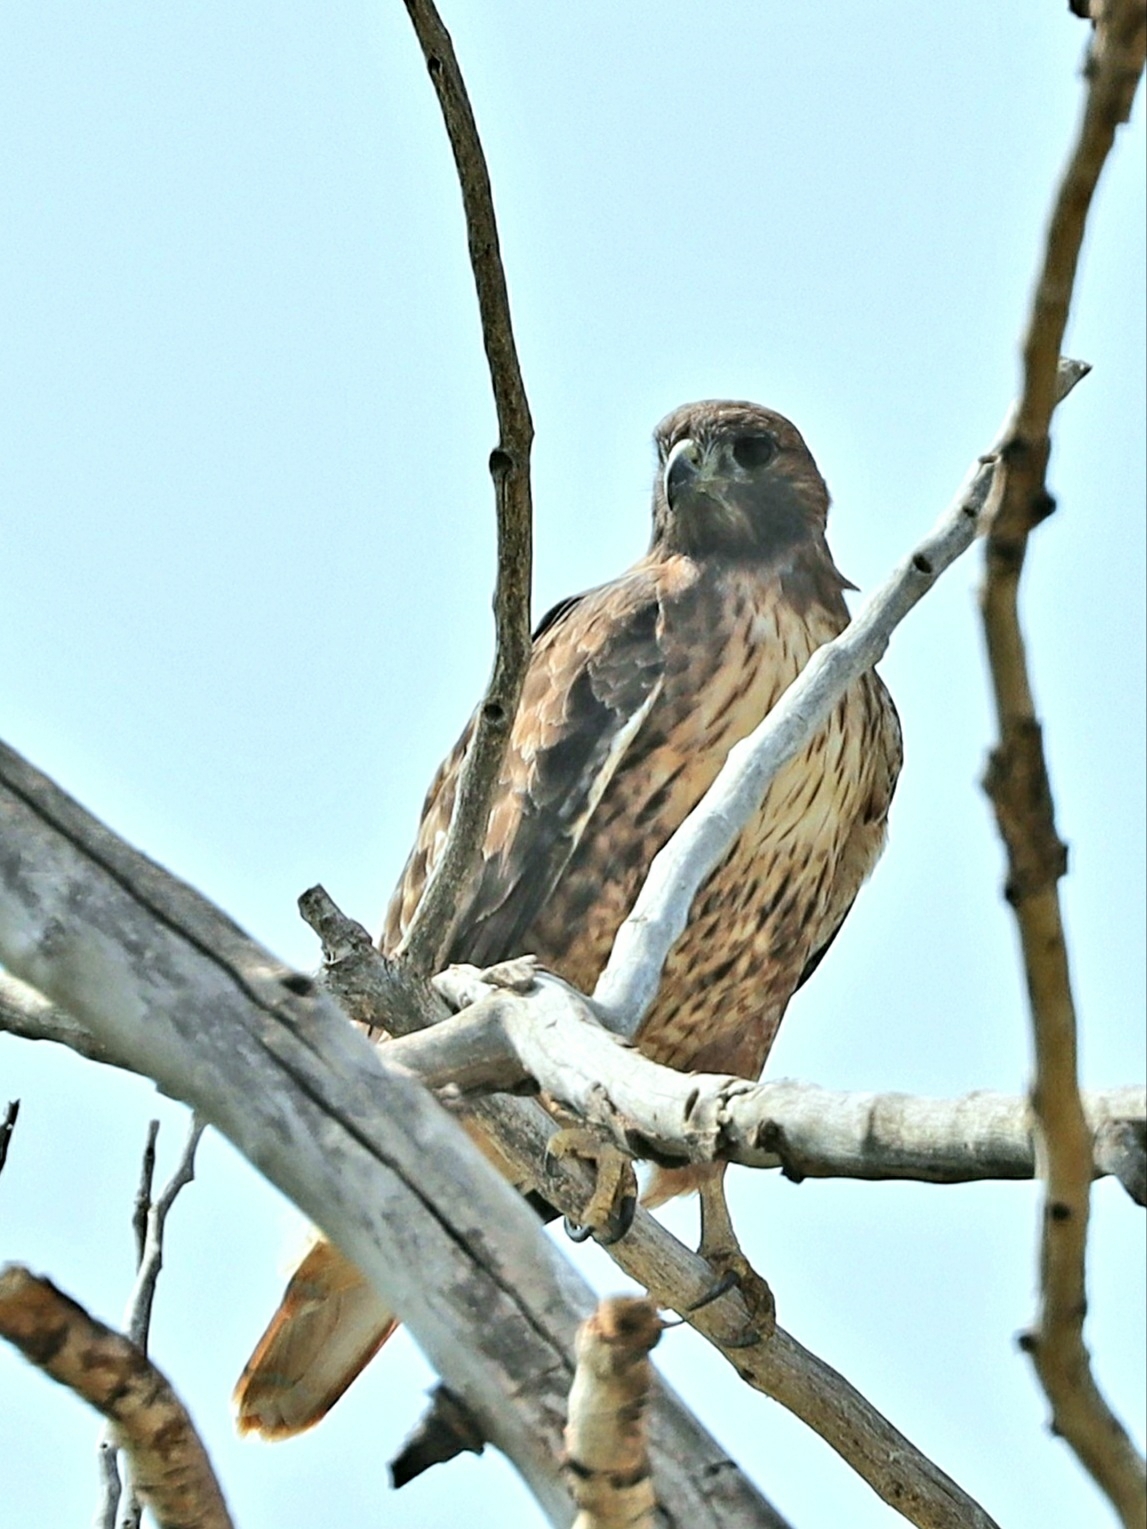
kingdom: Animalia
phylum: Chordata
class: Aves
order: Accipitriformes
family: Accipitridae
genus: Buteo
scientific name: Buteo jamaicensis
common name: Red-tailed hawk
